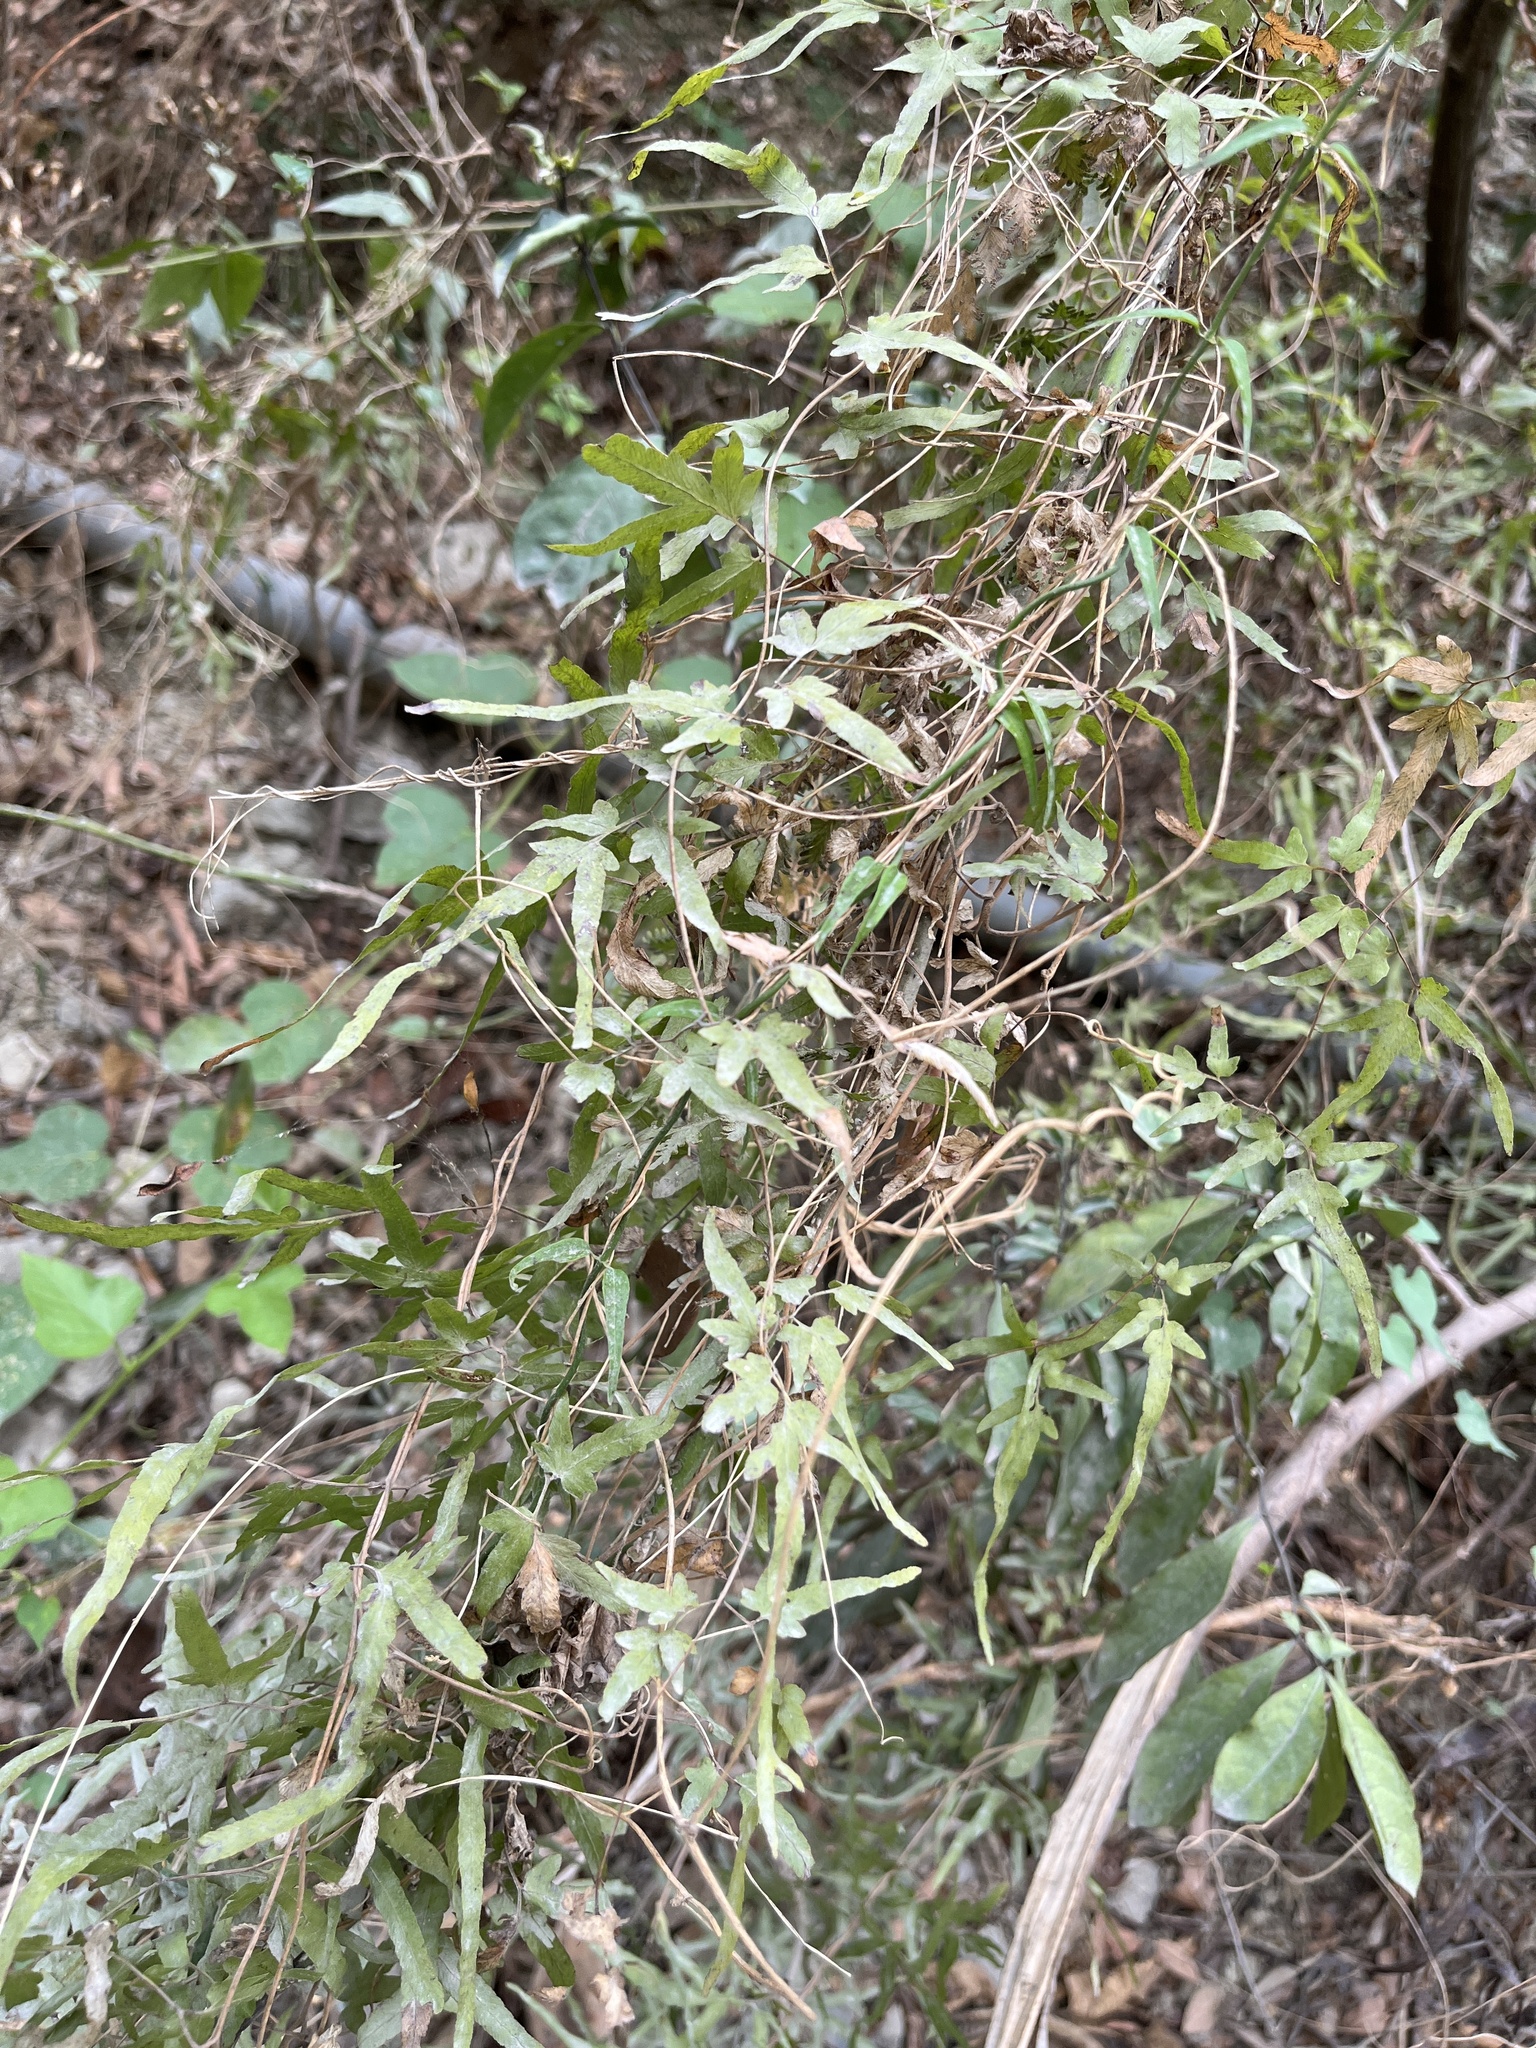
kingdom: Plantae
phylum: Tracheophyta
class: Polypodiopsida
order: Schizaeales
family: Lygodiaceae
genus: Lygodium
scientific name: Lygodium japonicum
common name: Japanese climbing fern
